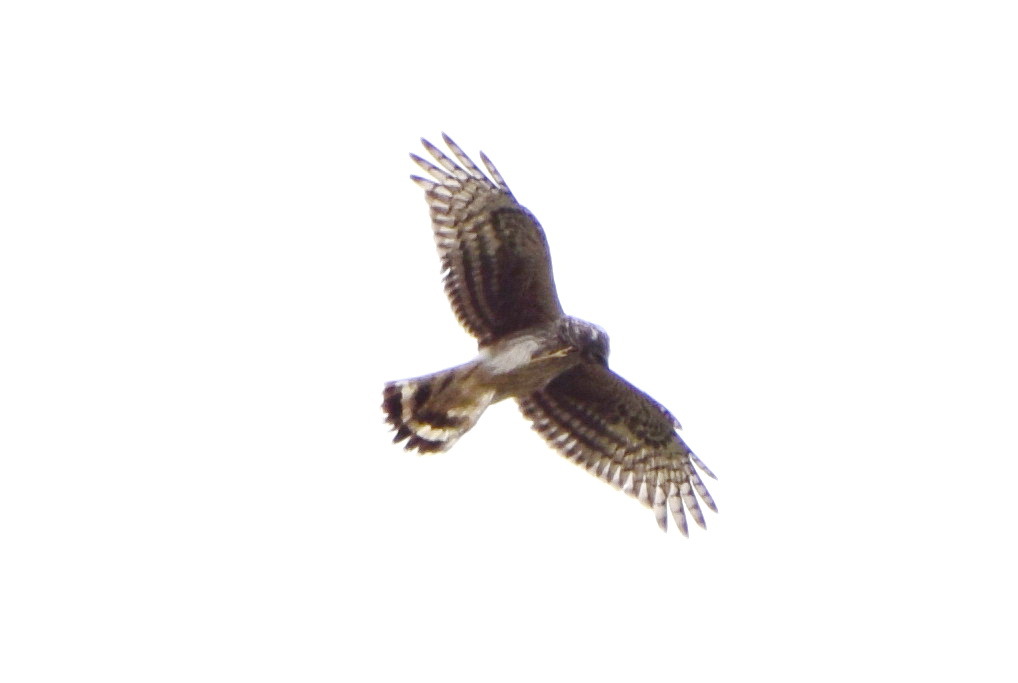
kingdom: Animalia
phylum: Chordata
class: Aves
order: Accipitriformes
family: Accipitridae
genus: Circus
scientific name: Circus cyaneus
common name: Hen harrier
